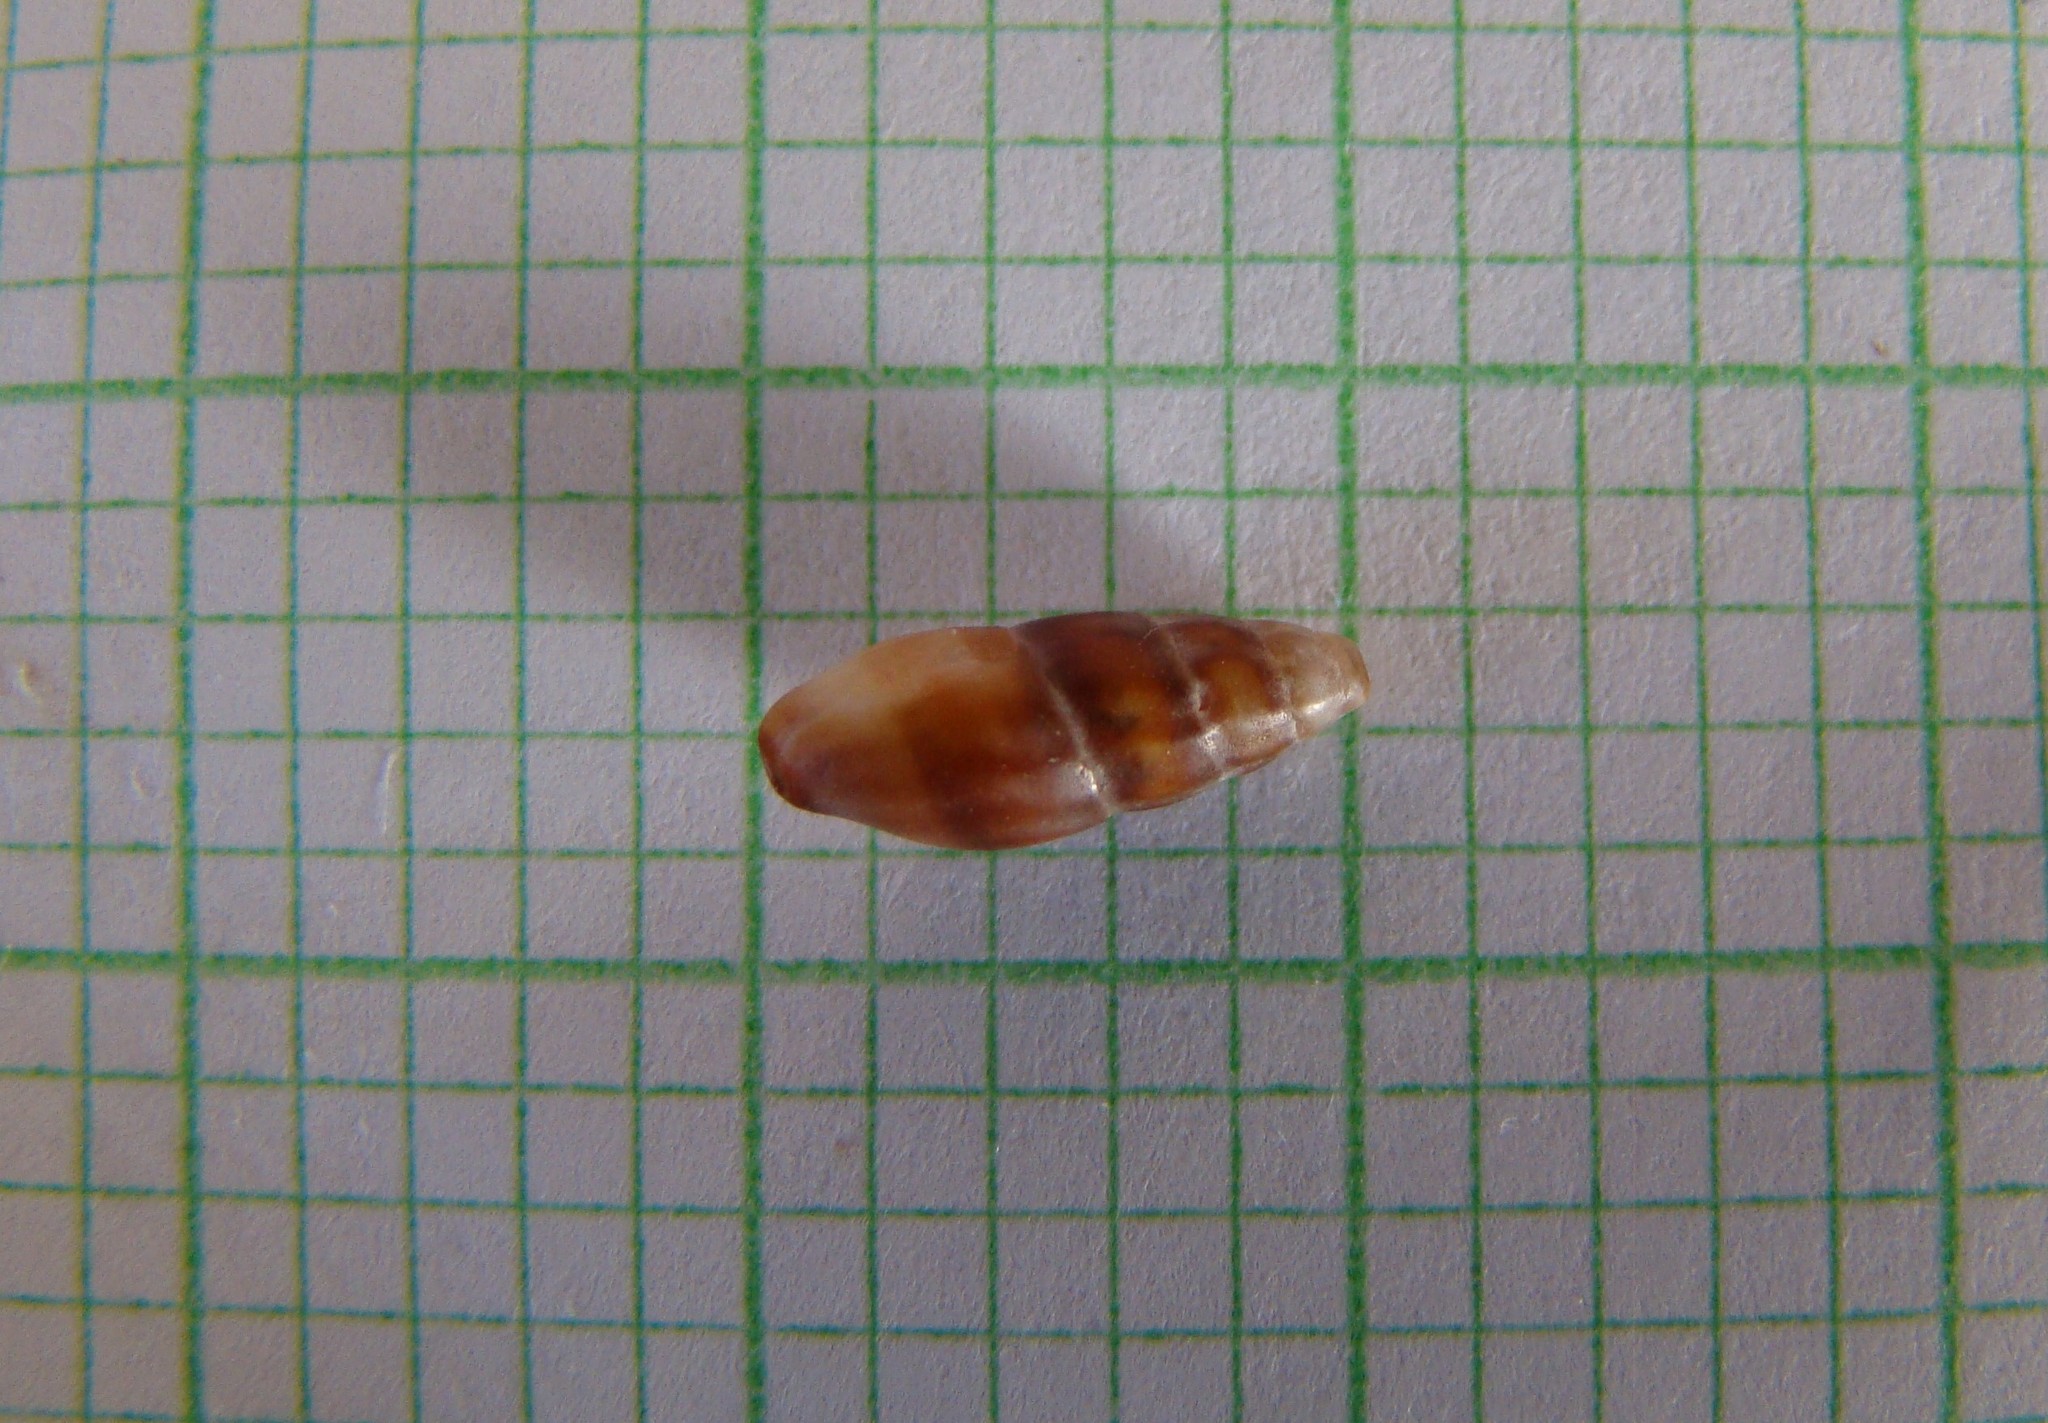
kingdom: Animalia
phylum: Mollusca
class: Gastropoda
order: Neogastropoda
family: Mangeliidae
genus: Neoguraleus
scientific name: Neoguraleus lyallensis
